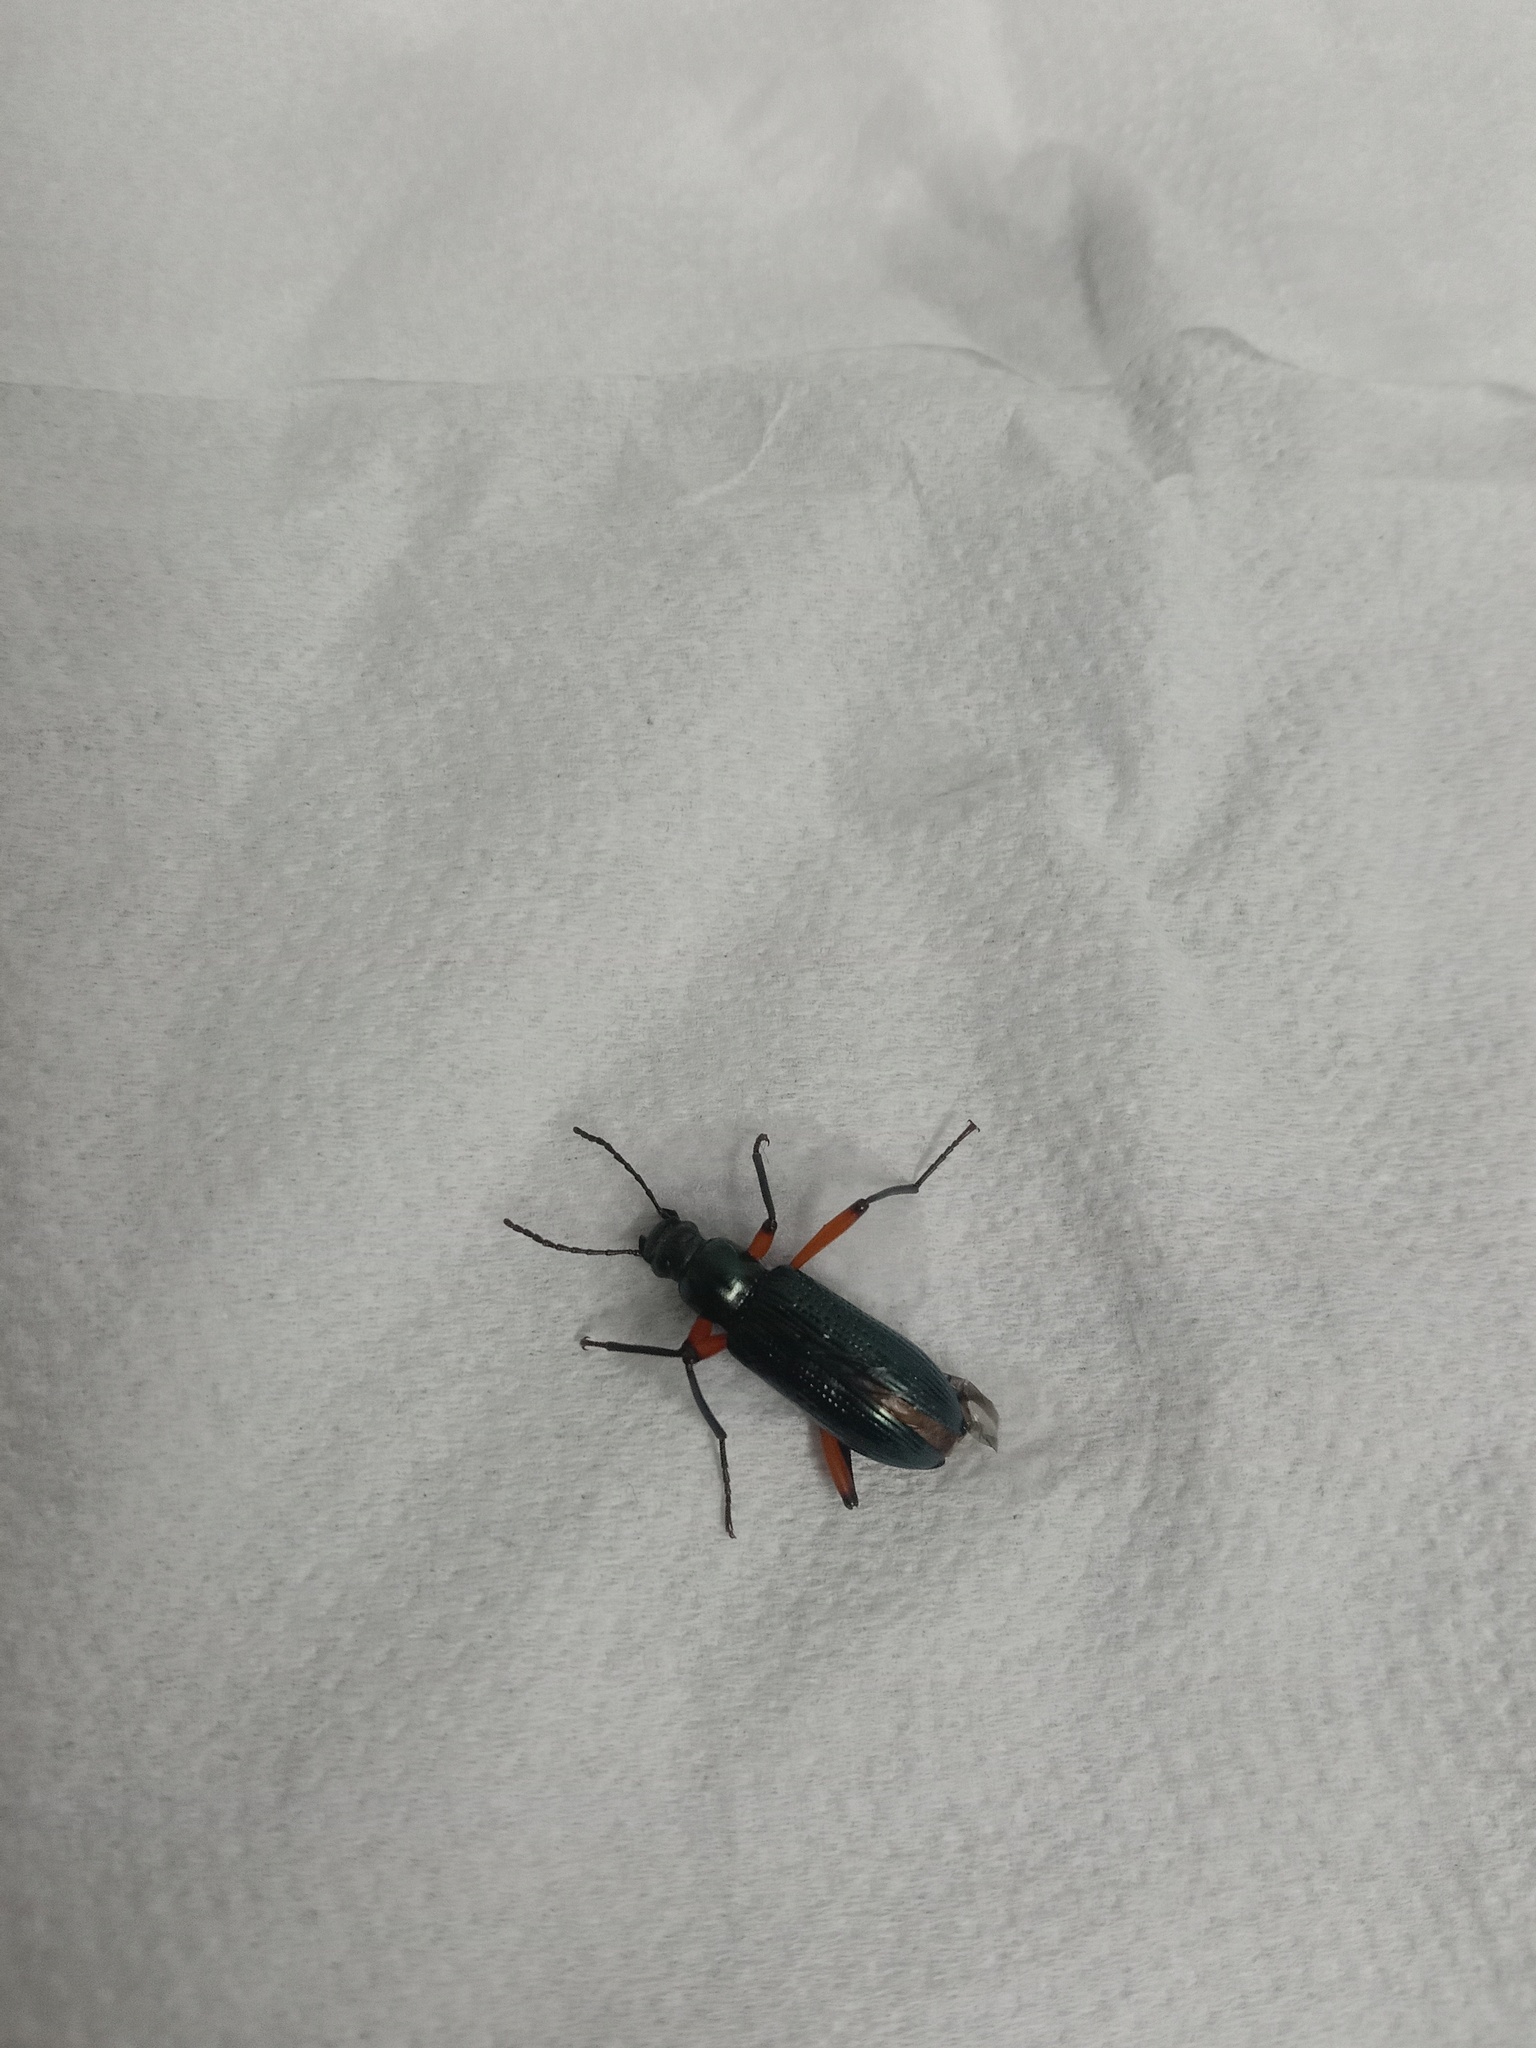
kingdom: Animalia
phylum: Arthropoda
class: Insecta
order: Coleoptera
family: Tenebrionidae
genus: Strongylium
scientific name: Strongylium erythrocephalum
